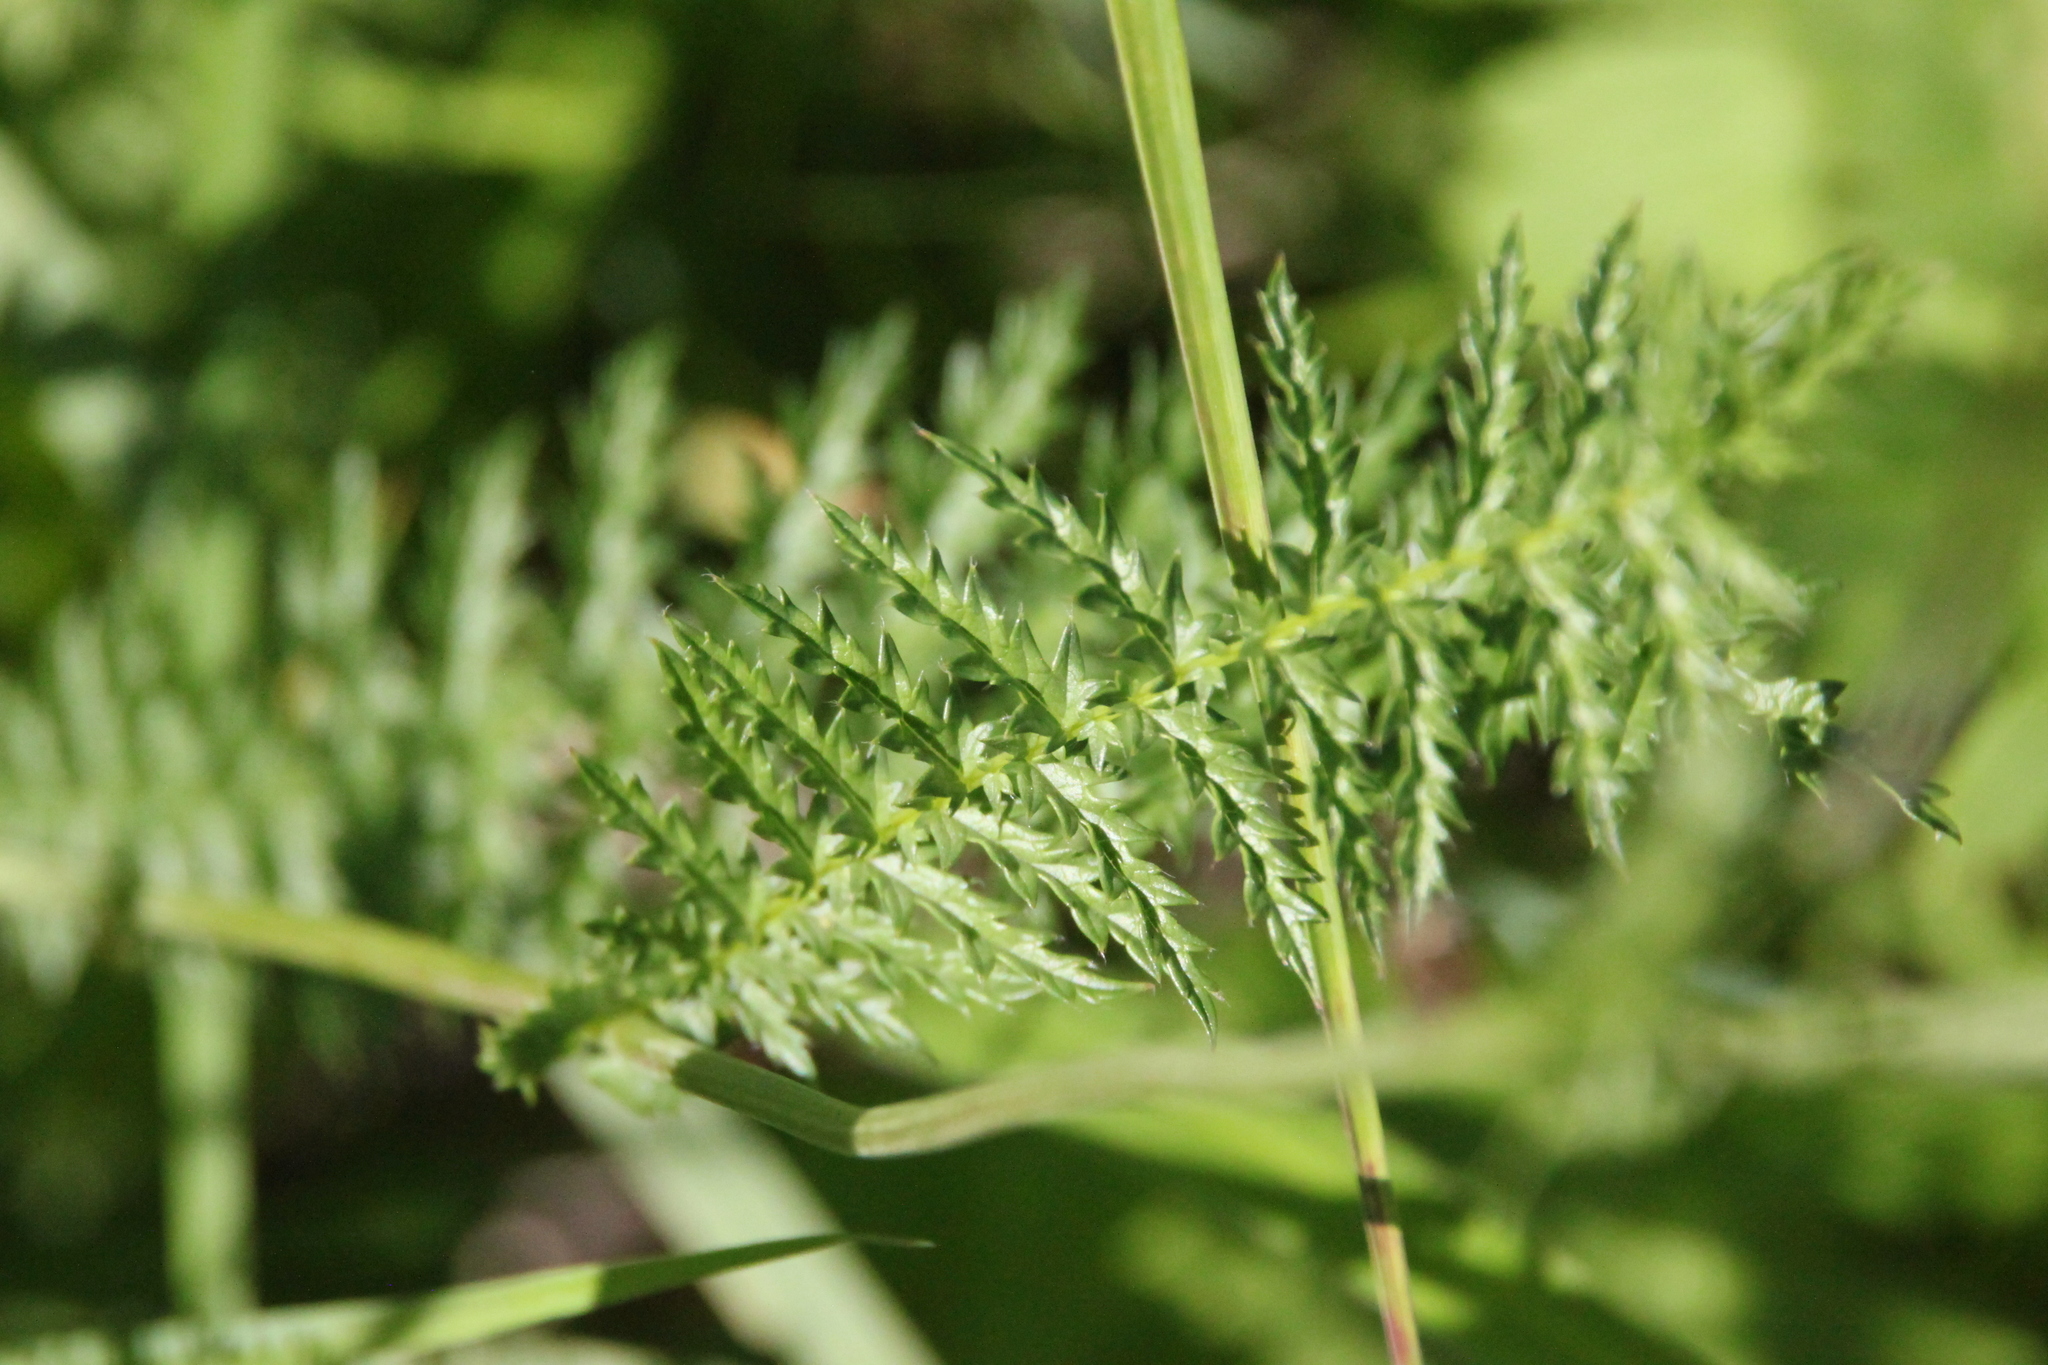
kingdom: Plantae
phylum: Tracheophyta
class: Magnoliopsida
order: Rosales
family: Rosaceae
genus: Filipendula
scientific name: Filipendula vulgaris
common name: Dropwort
